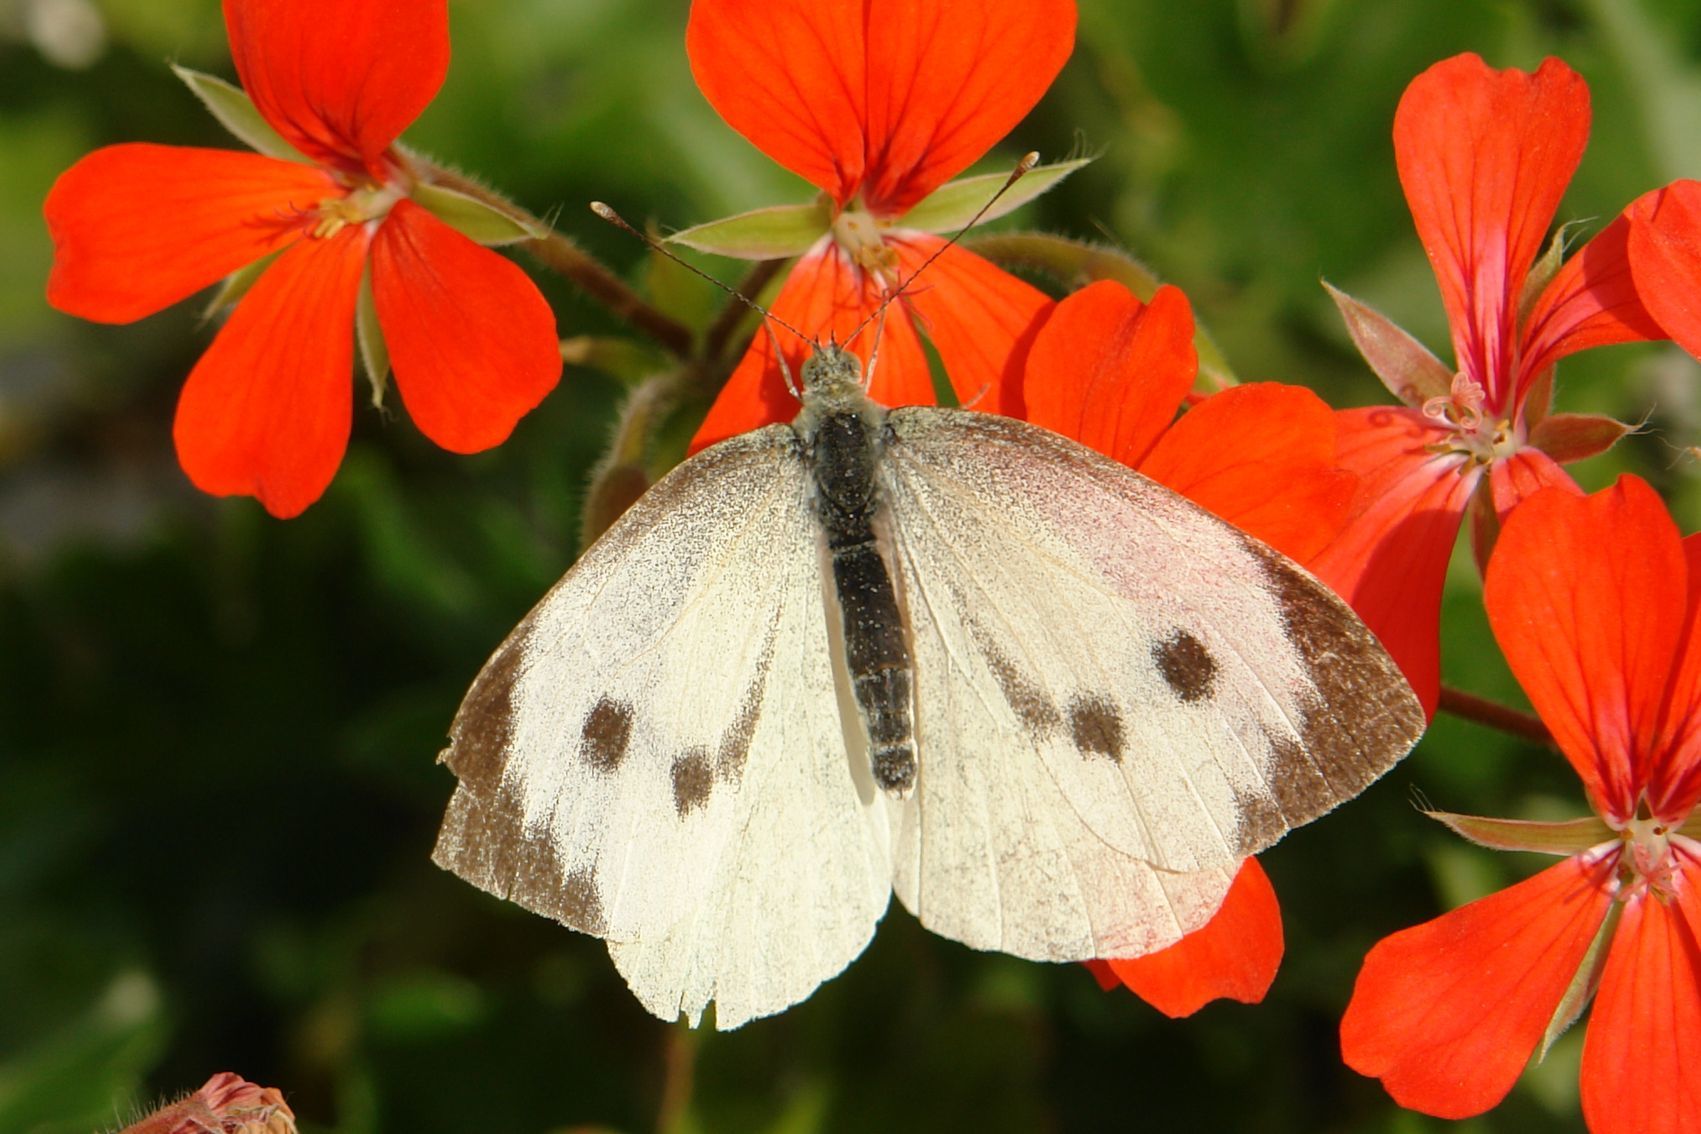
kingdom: Animalia
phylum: Arthropoda
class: Insecta
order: Lepidoptera
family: Pieridae
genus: Pieris
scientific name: Pieris brassicae
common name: Large white
